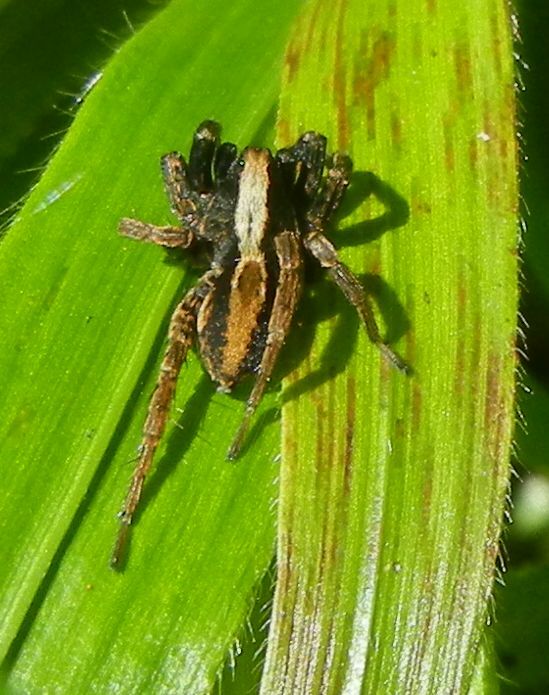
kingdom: Animalia
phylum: Arthropoda
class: Arachnida
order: Araneae
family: Lycosidae
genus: Alopecosa
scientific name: Alopecosa pulverulenta
